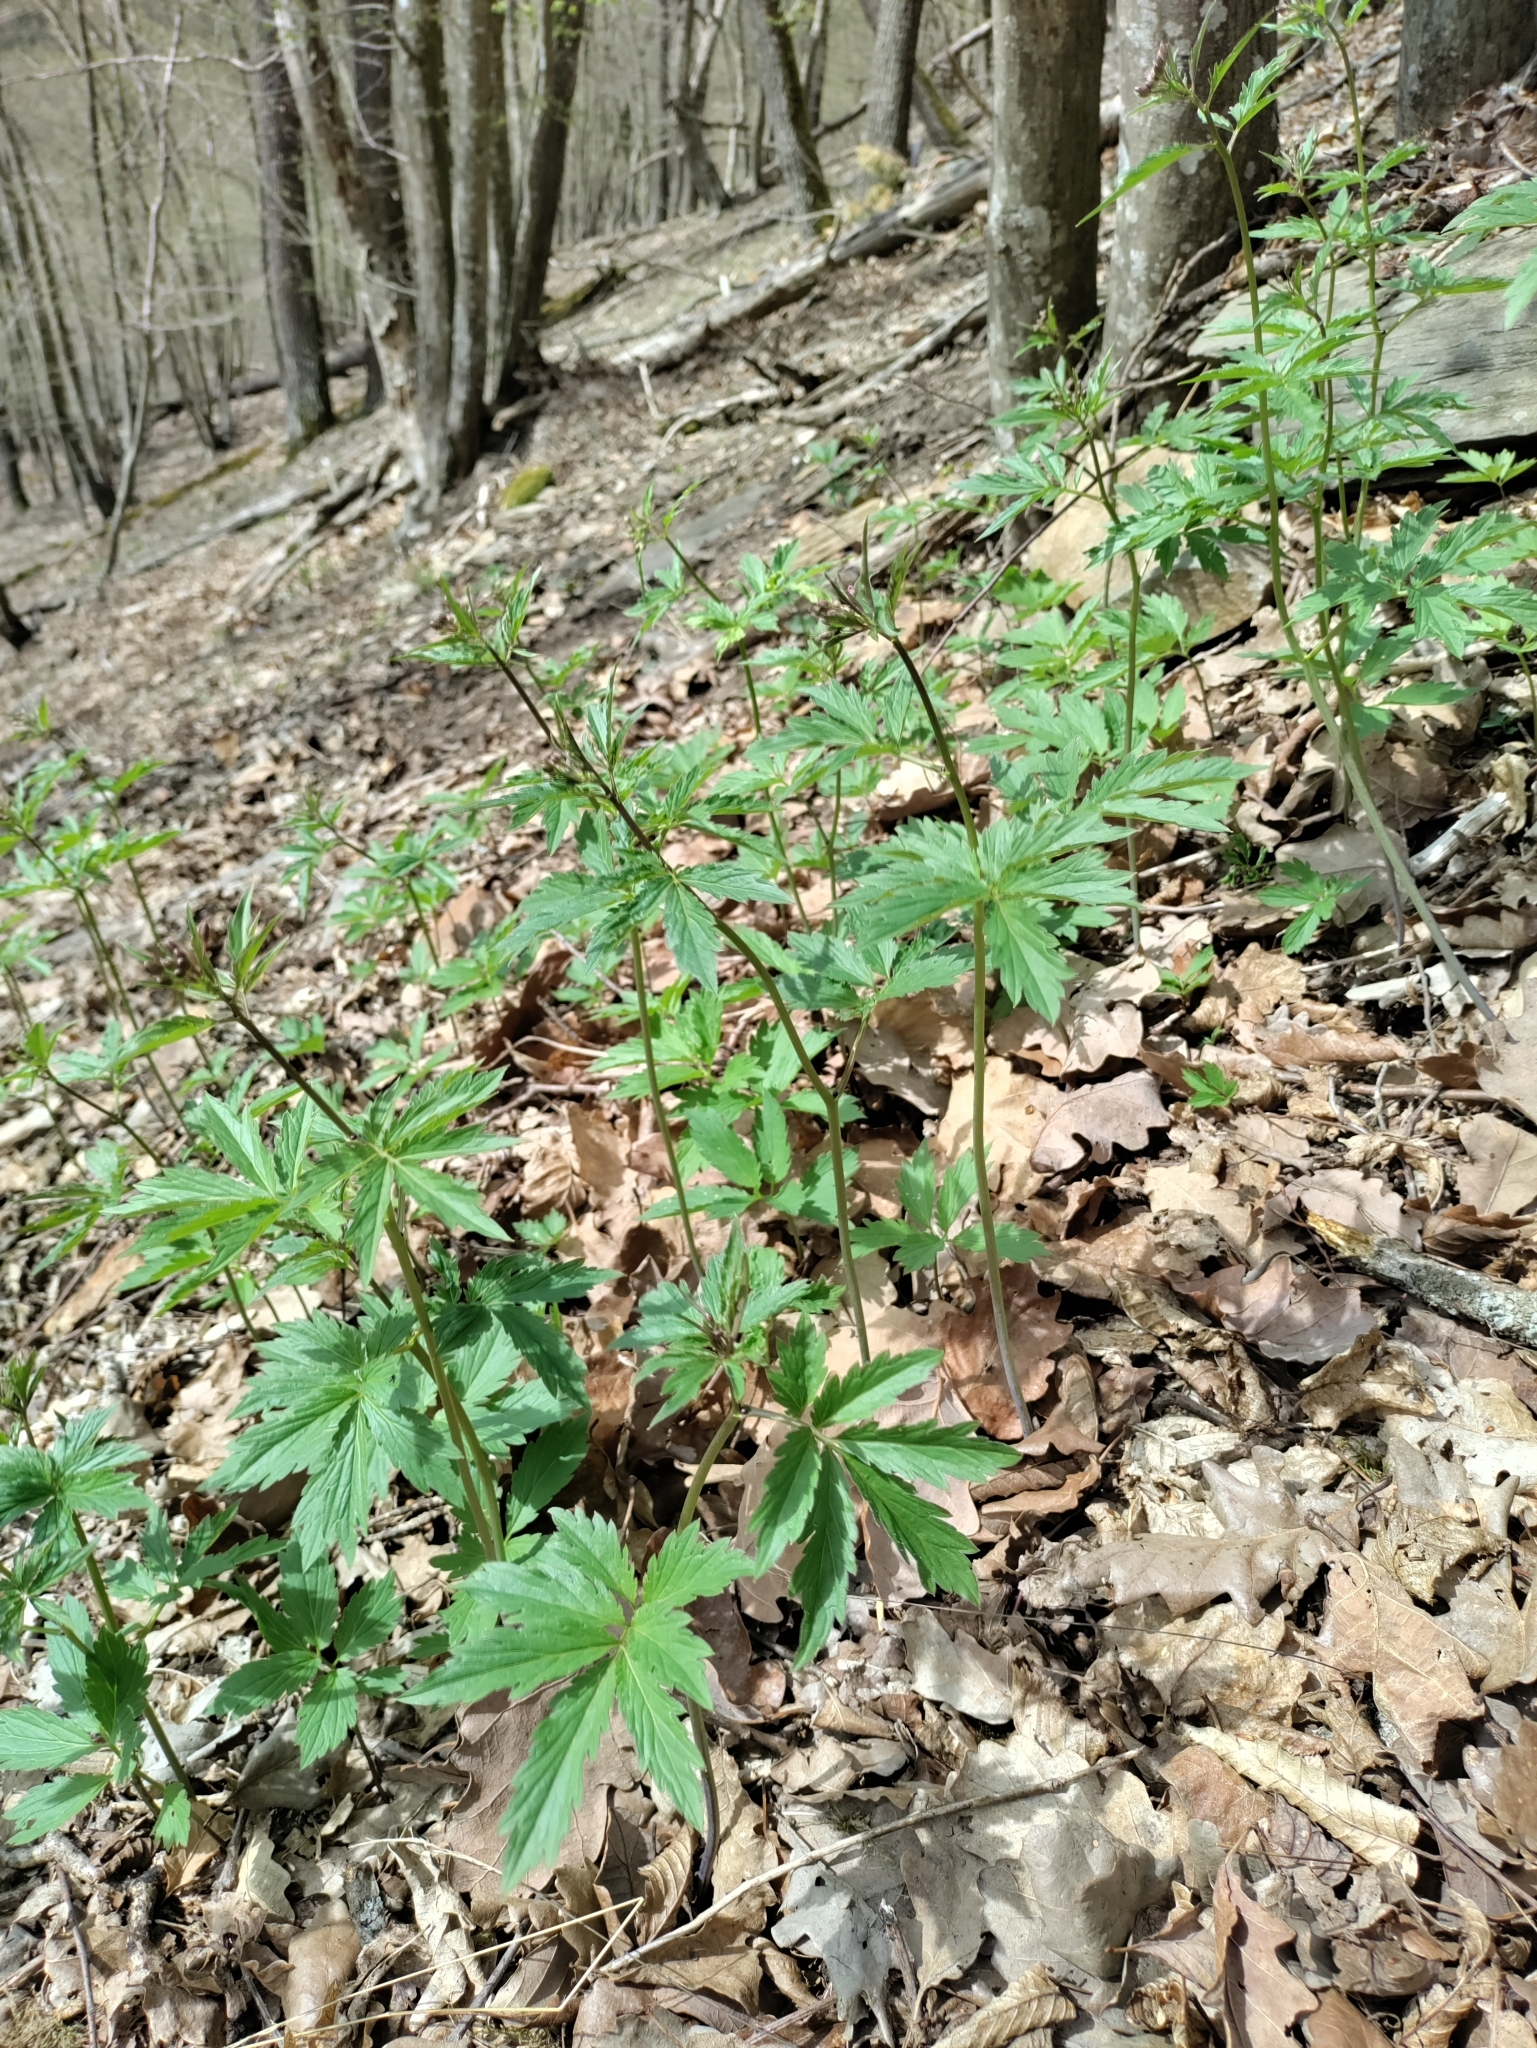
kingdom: Plantae
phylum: Tracheophyta
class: Magnoliopsida
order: Brassicales
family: Brassicaceae
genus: Cardamine
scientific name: Cardamine bulbifera
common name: Coralroot bittercress
